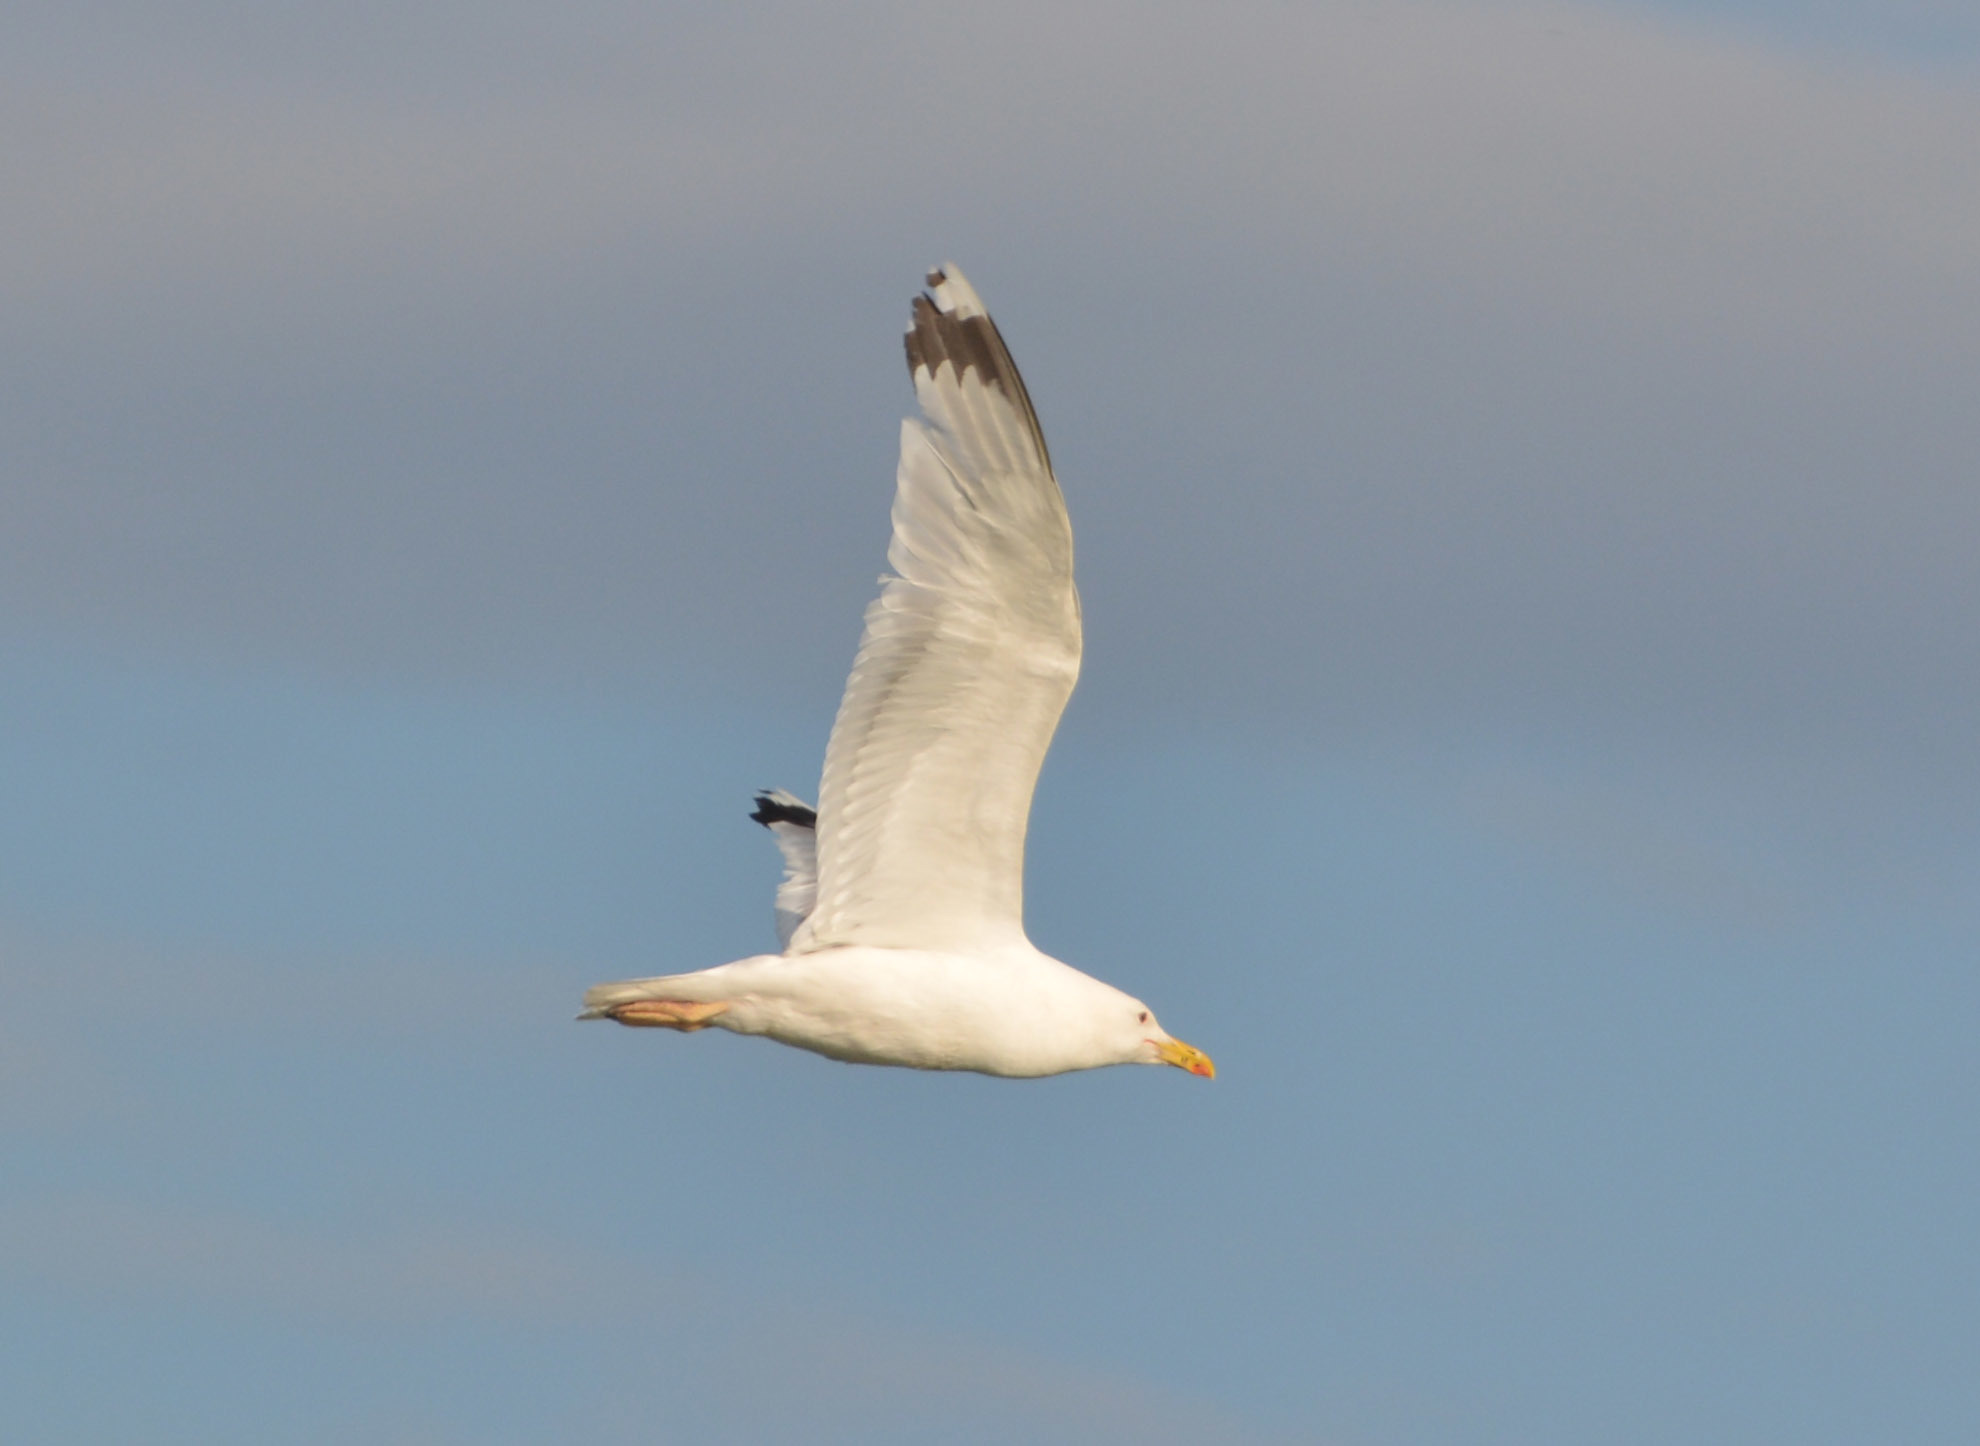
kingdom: Animalia
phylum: Chordata
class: Aves
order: Charadriiformes
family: Laridae
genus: Larus
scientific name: Larus argentatus
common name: Herring gull
